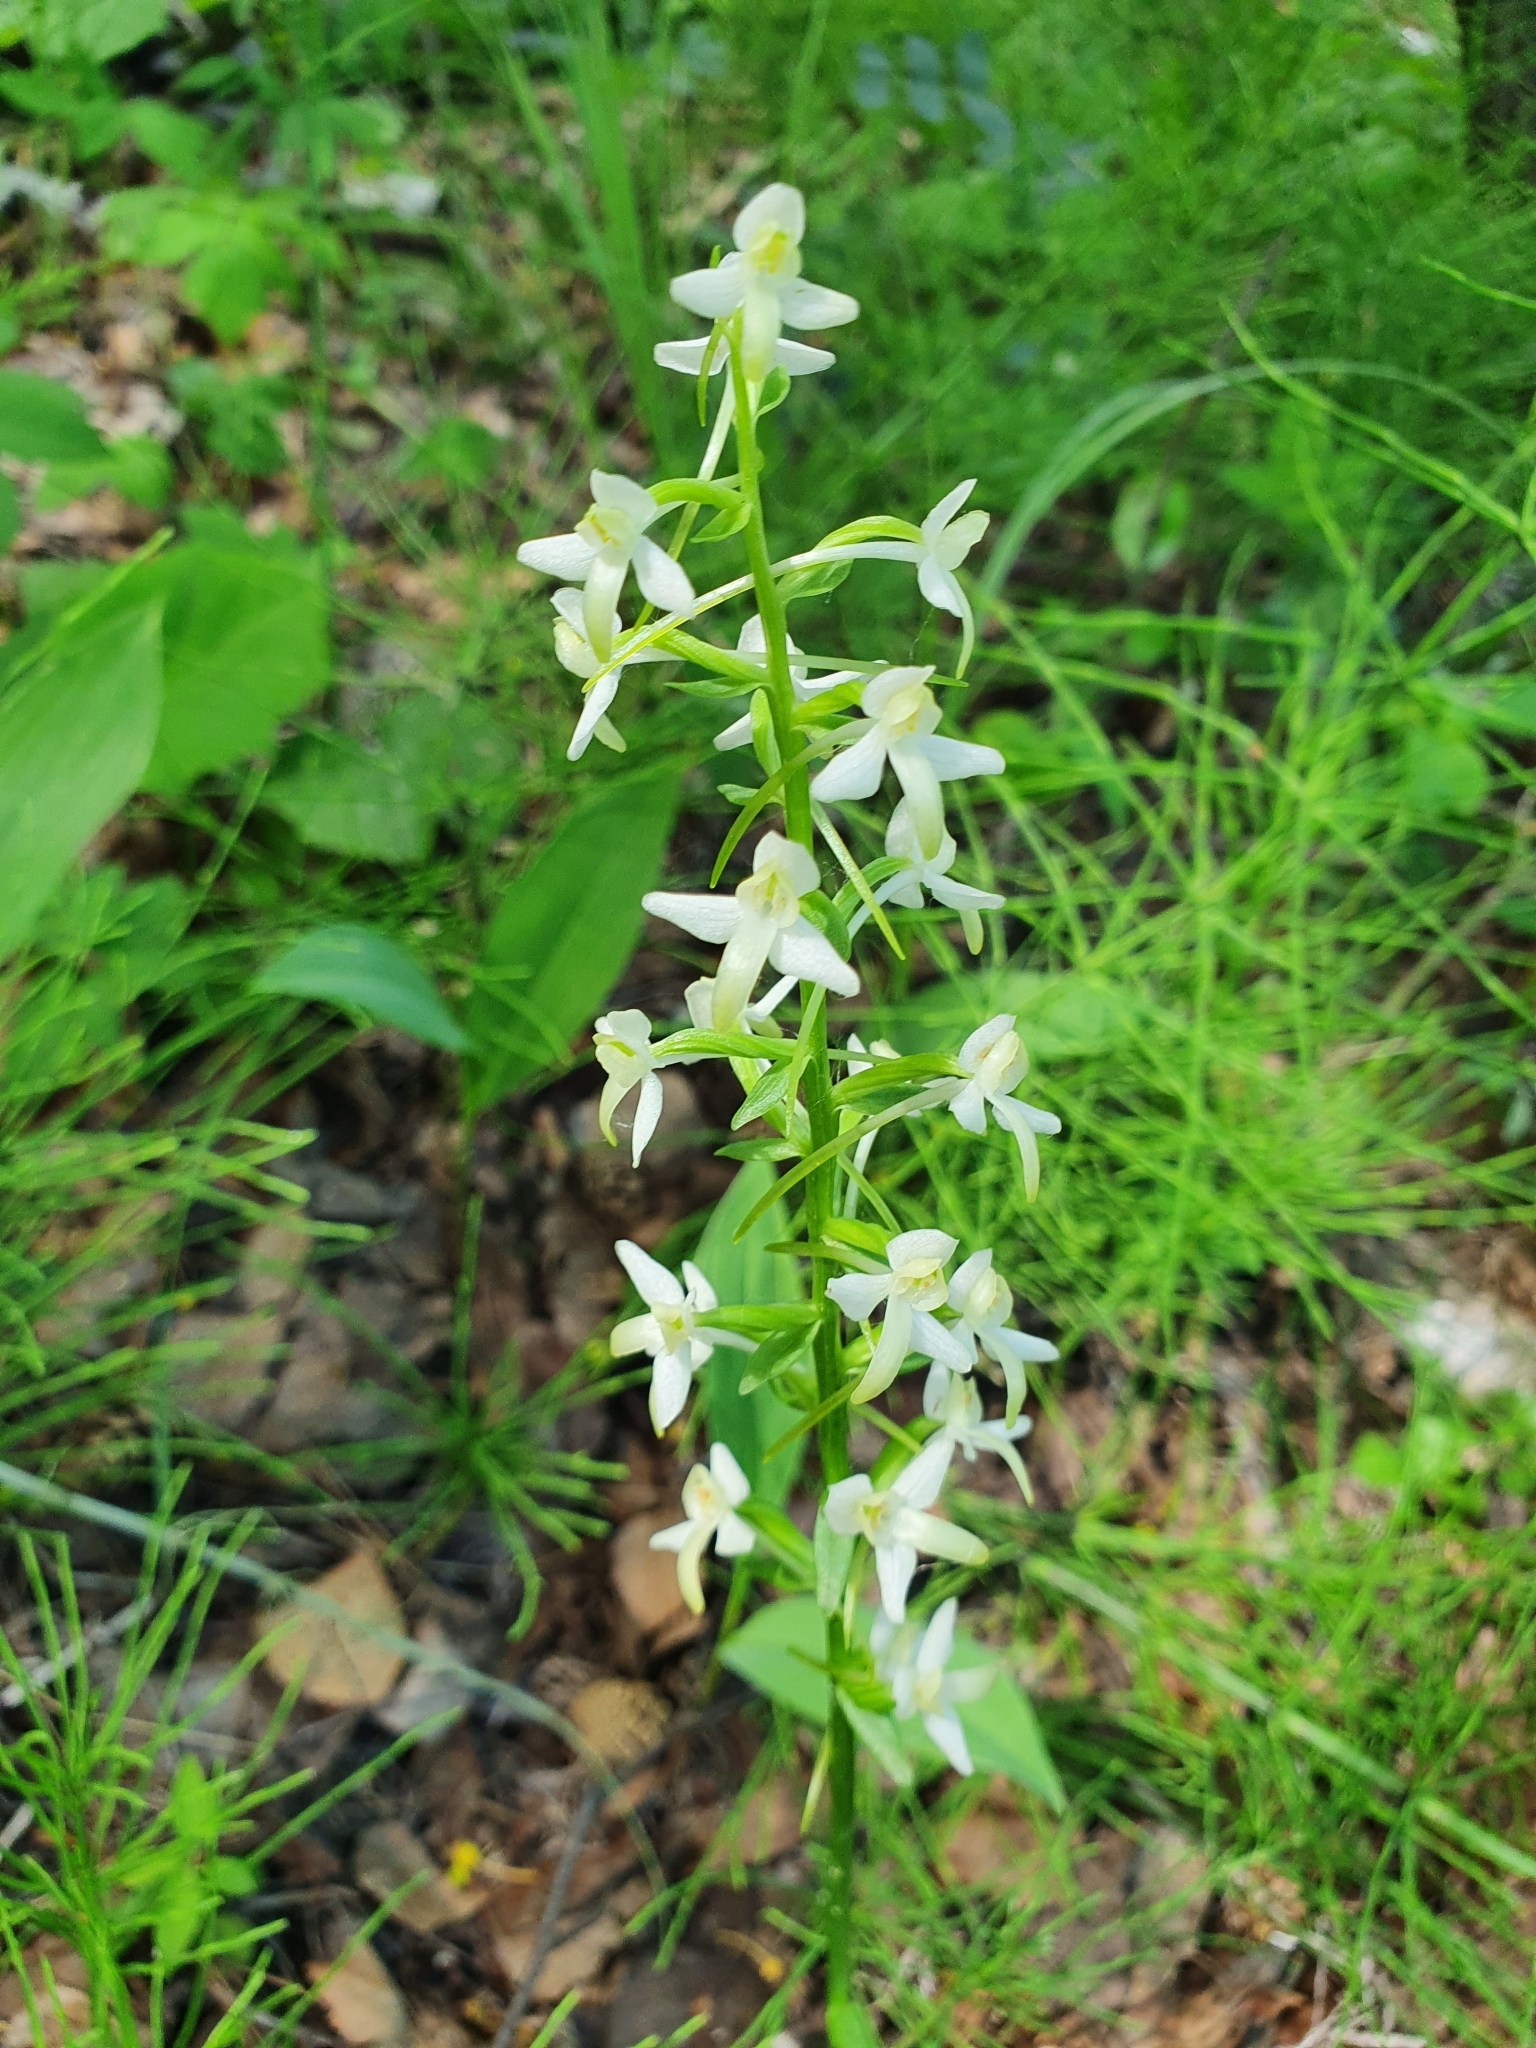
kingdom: Plantae
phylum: Tracheophyta
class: Liliopsida
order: Asparagales
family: Orchidaceae
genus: Platanthera
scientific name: Platanthera bifolia
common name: Lesser butterfly-orchid
